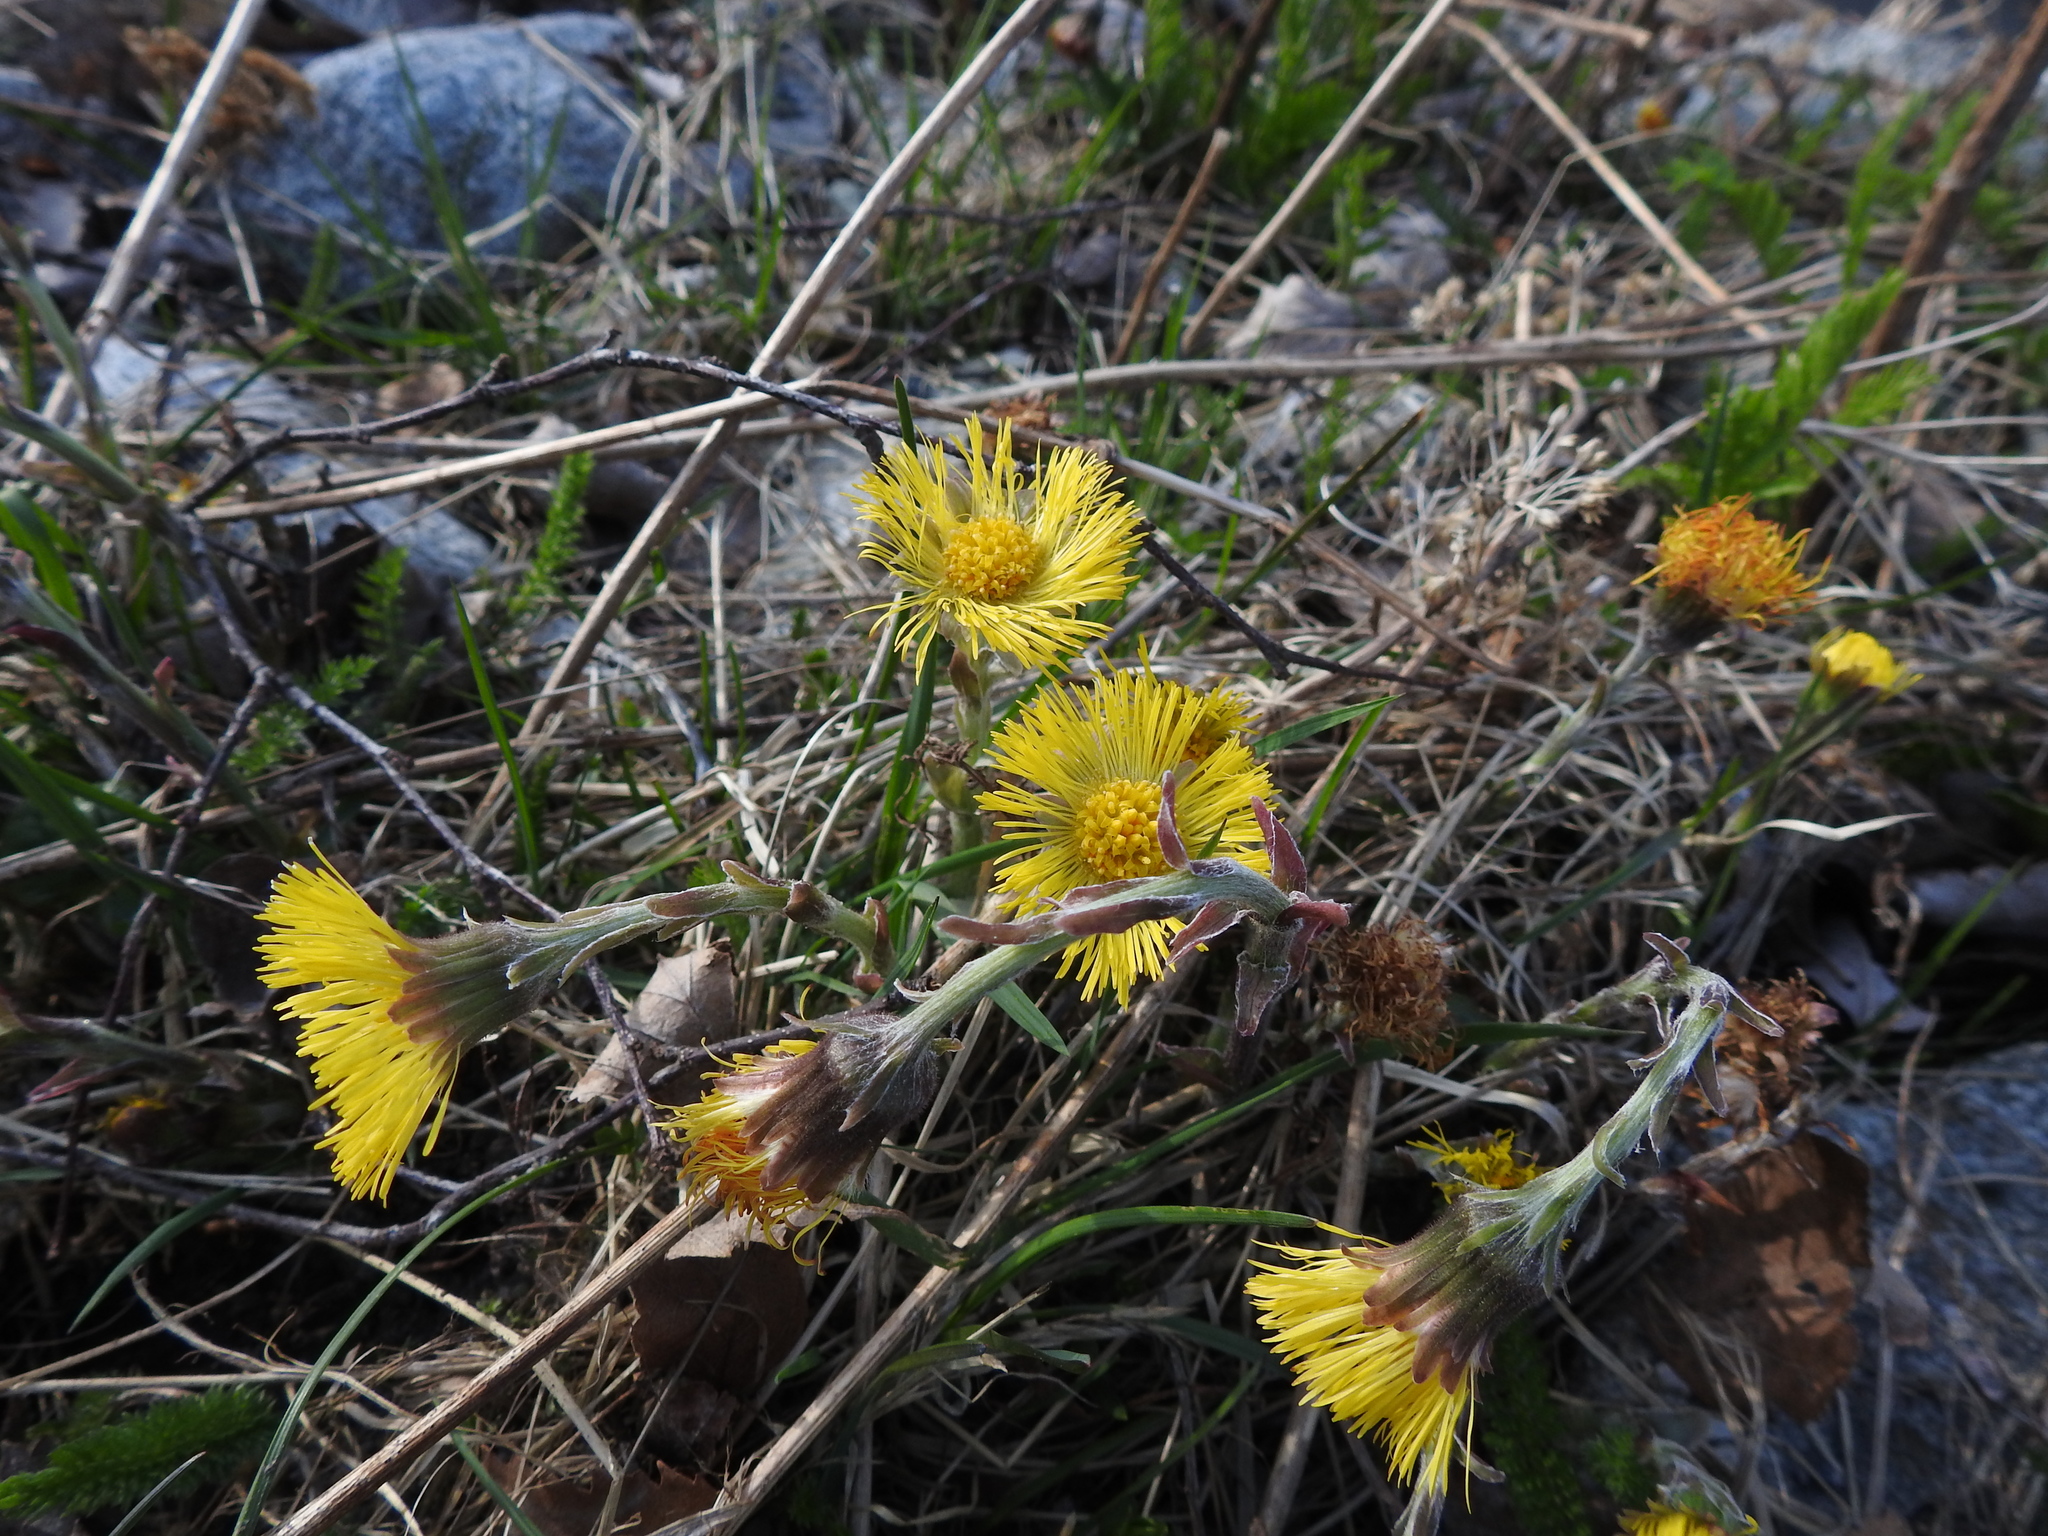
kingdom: Plantae
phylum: Tracheophyta
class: Magnoliopsida
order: Asterales
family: Asteraceae
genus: Tussilago
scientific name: Tussilago farfara
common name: Coltsfoot
